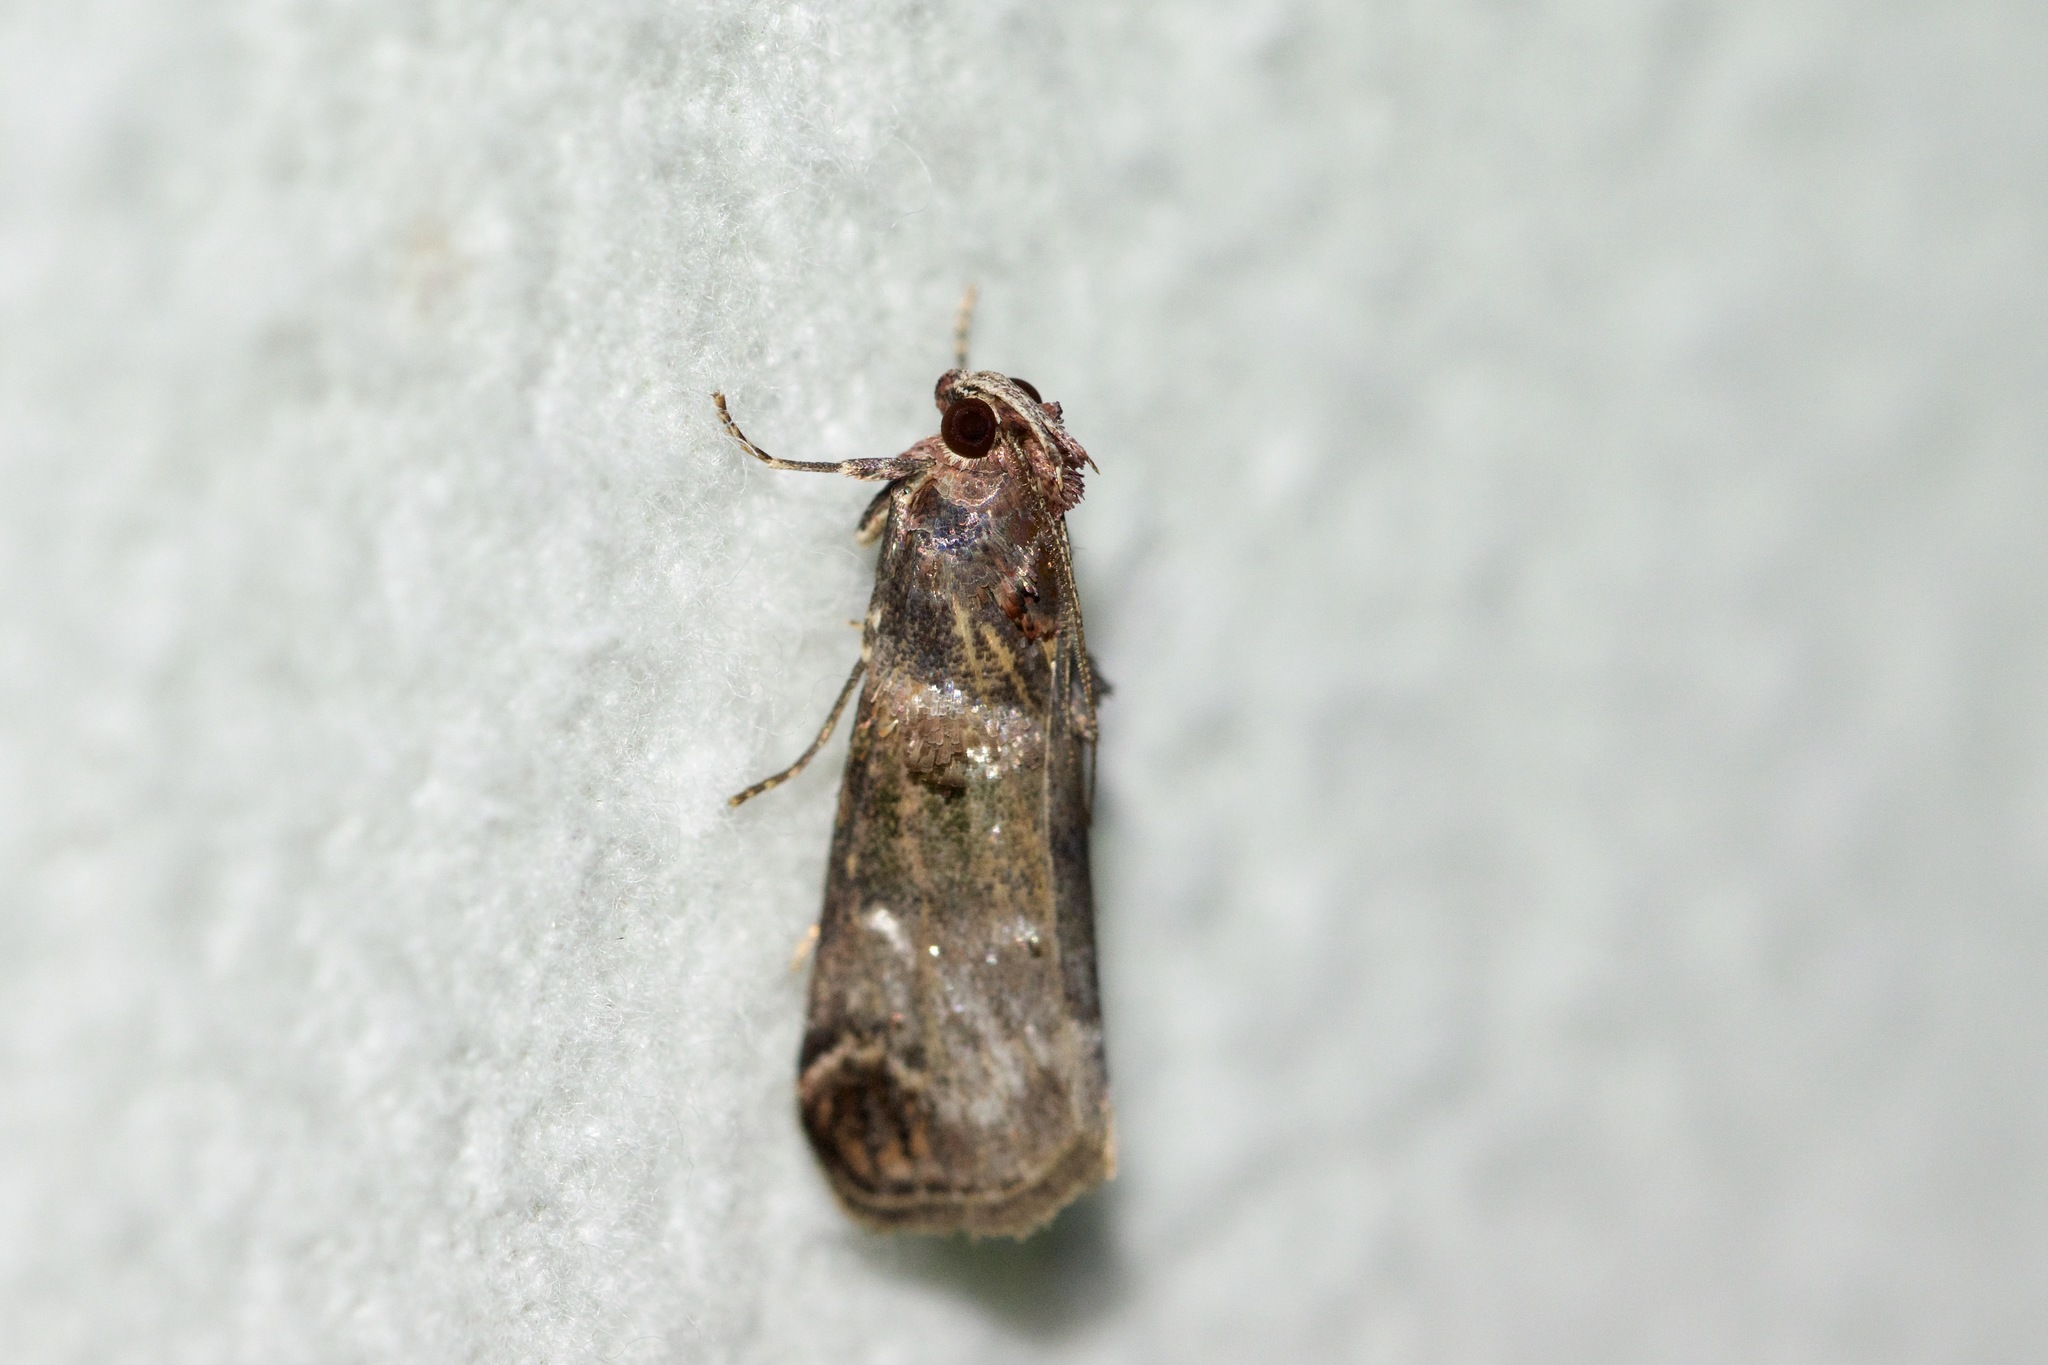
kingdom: Animalia
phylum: Arthropoda
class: Insecta
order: Lepidoptera
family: Pyralidae
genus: Oneida
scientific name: Oneida lunulalis
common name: Orange-tufted oneida moth
